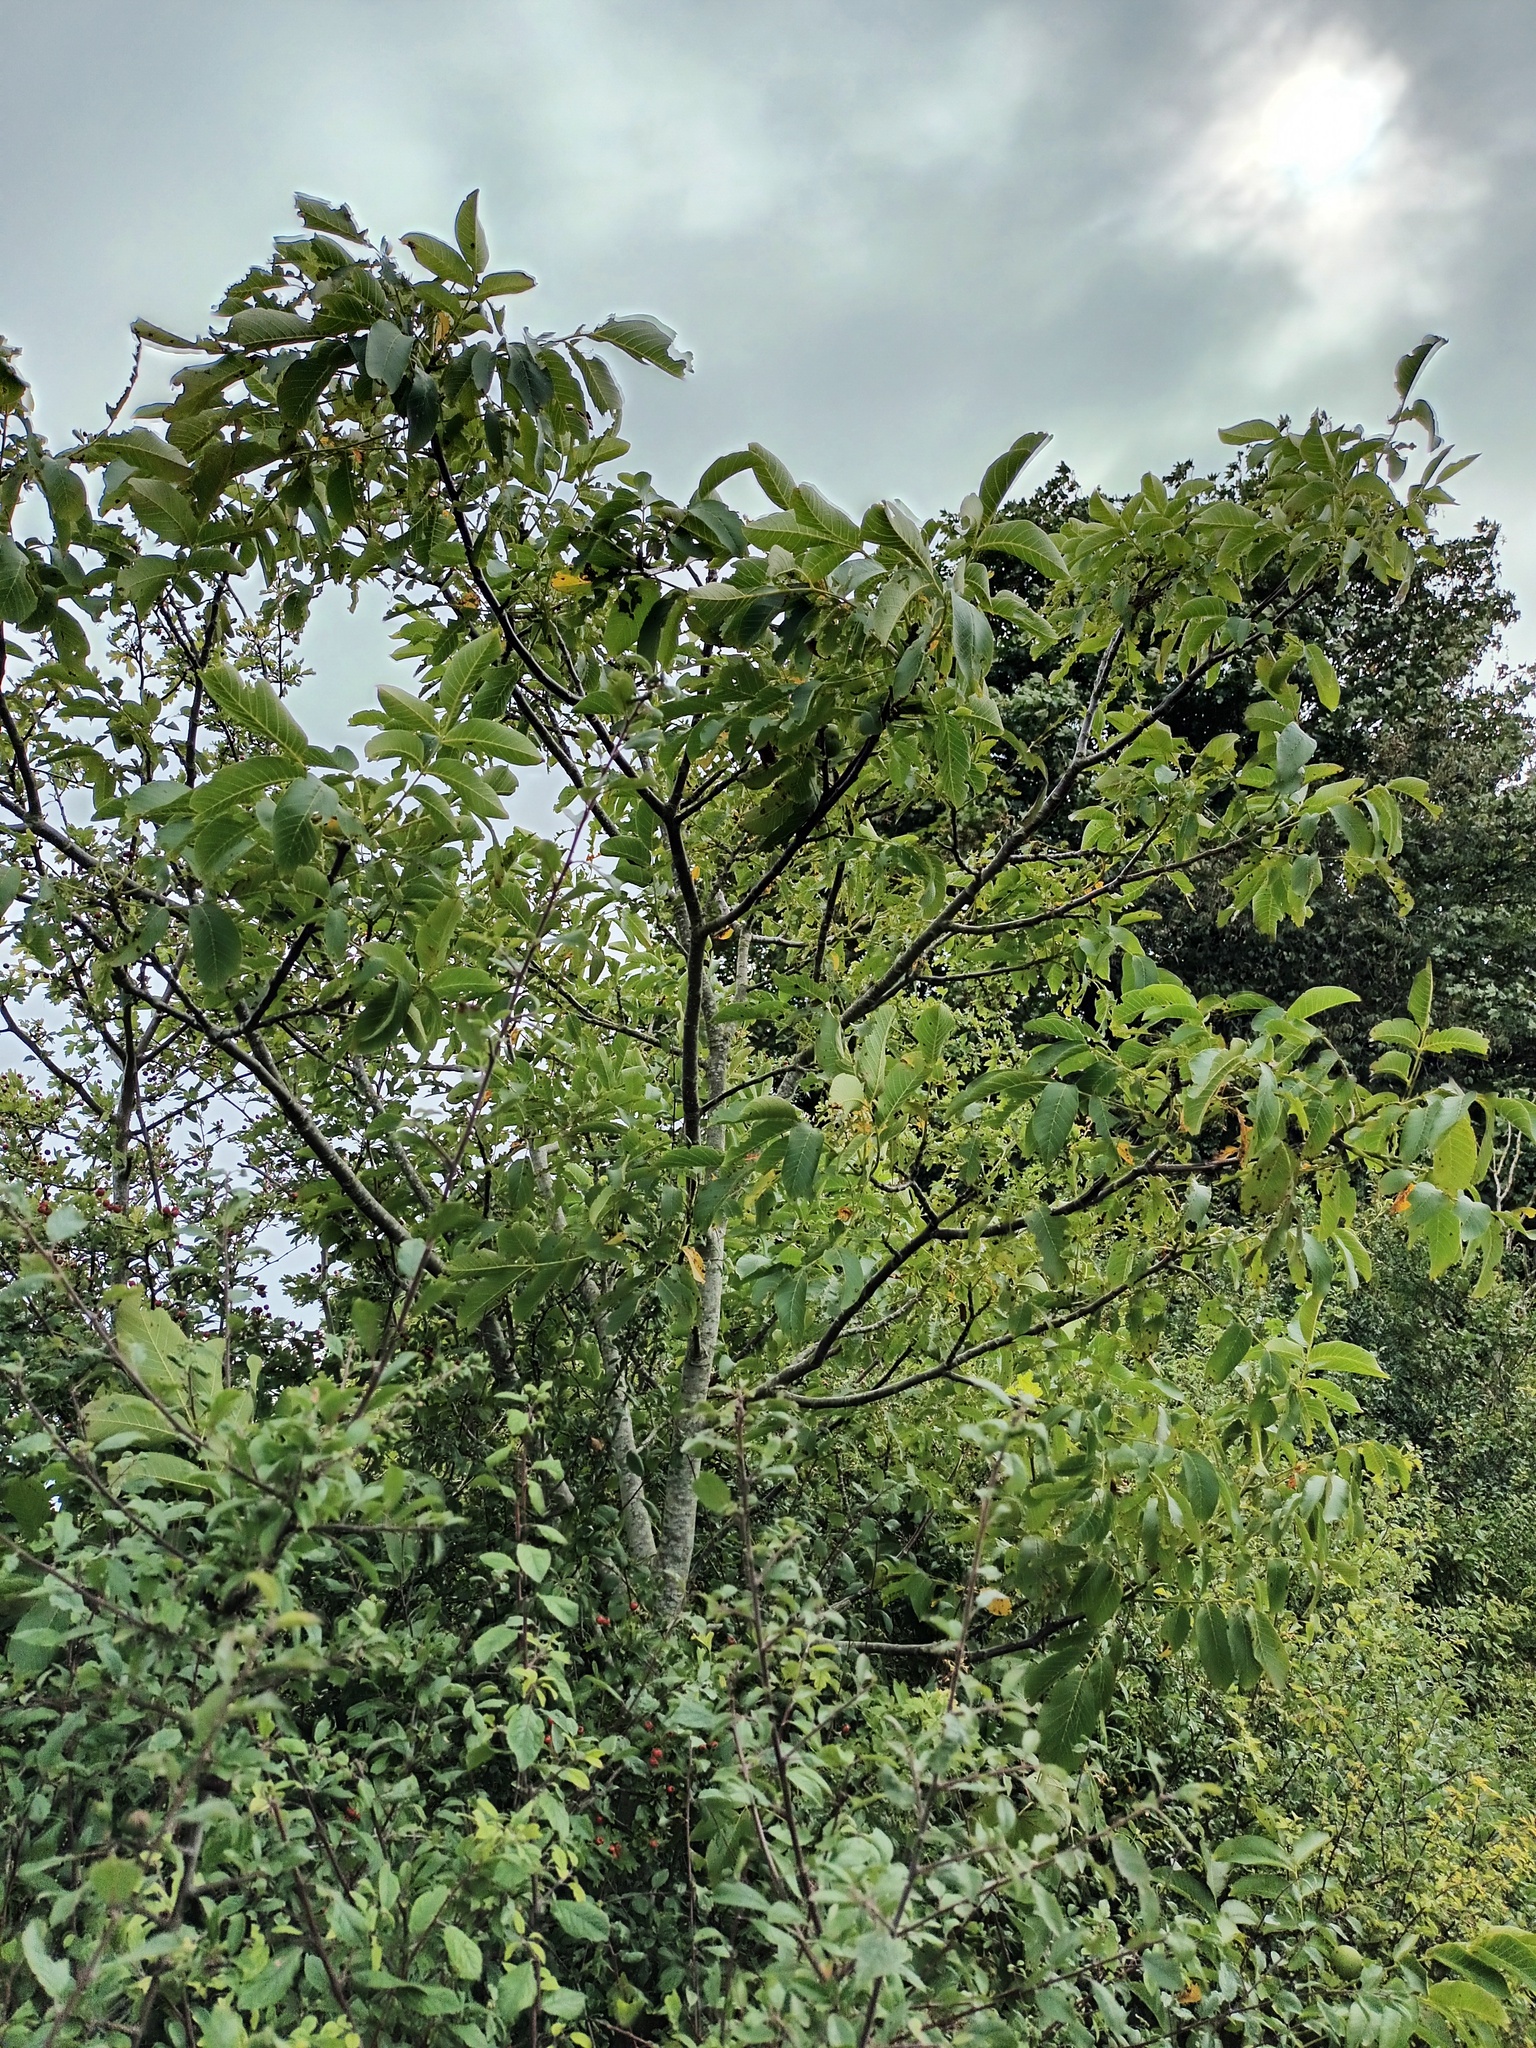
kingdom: Plantae
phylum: Tracheophyta
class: Magnoliopsida
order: Fagales
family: Juglandaceae
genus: Juglans
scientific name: Juglans regia
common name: Walnut
